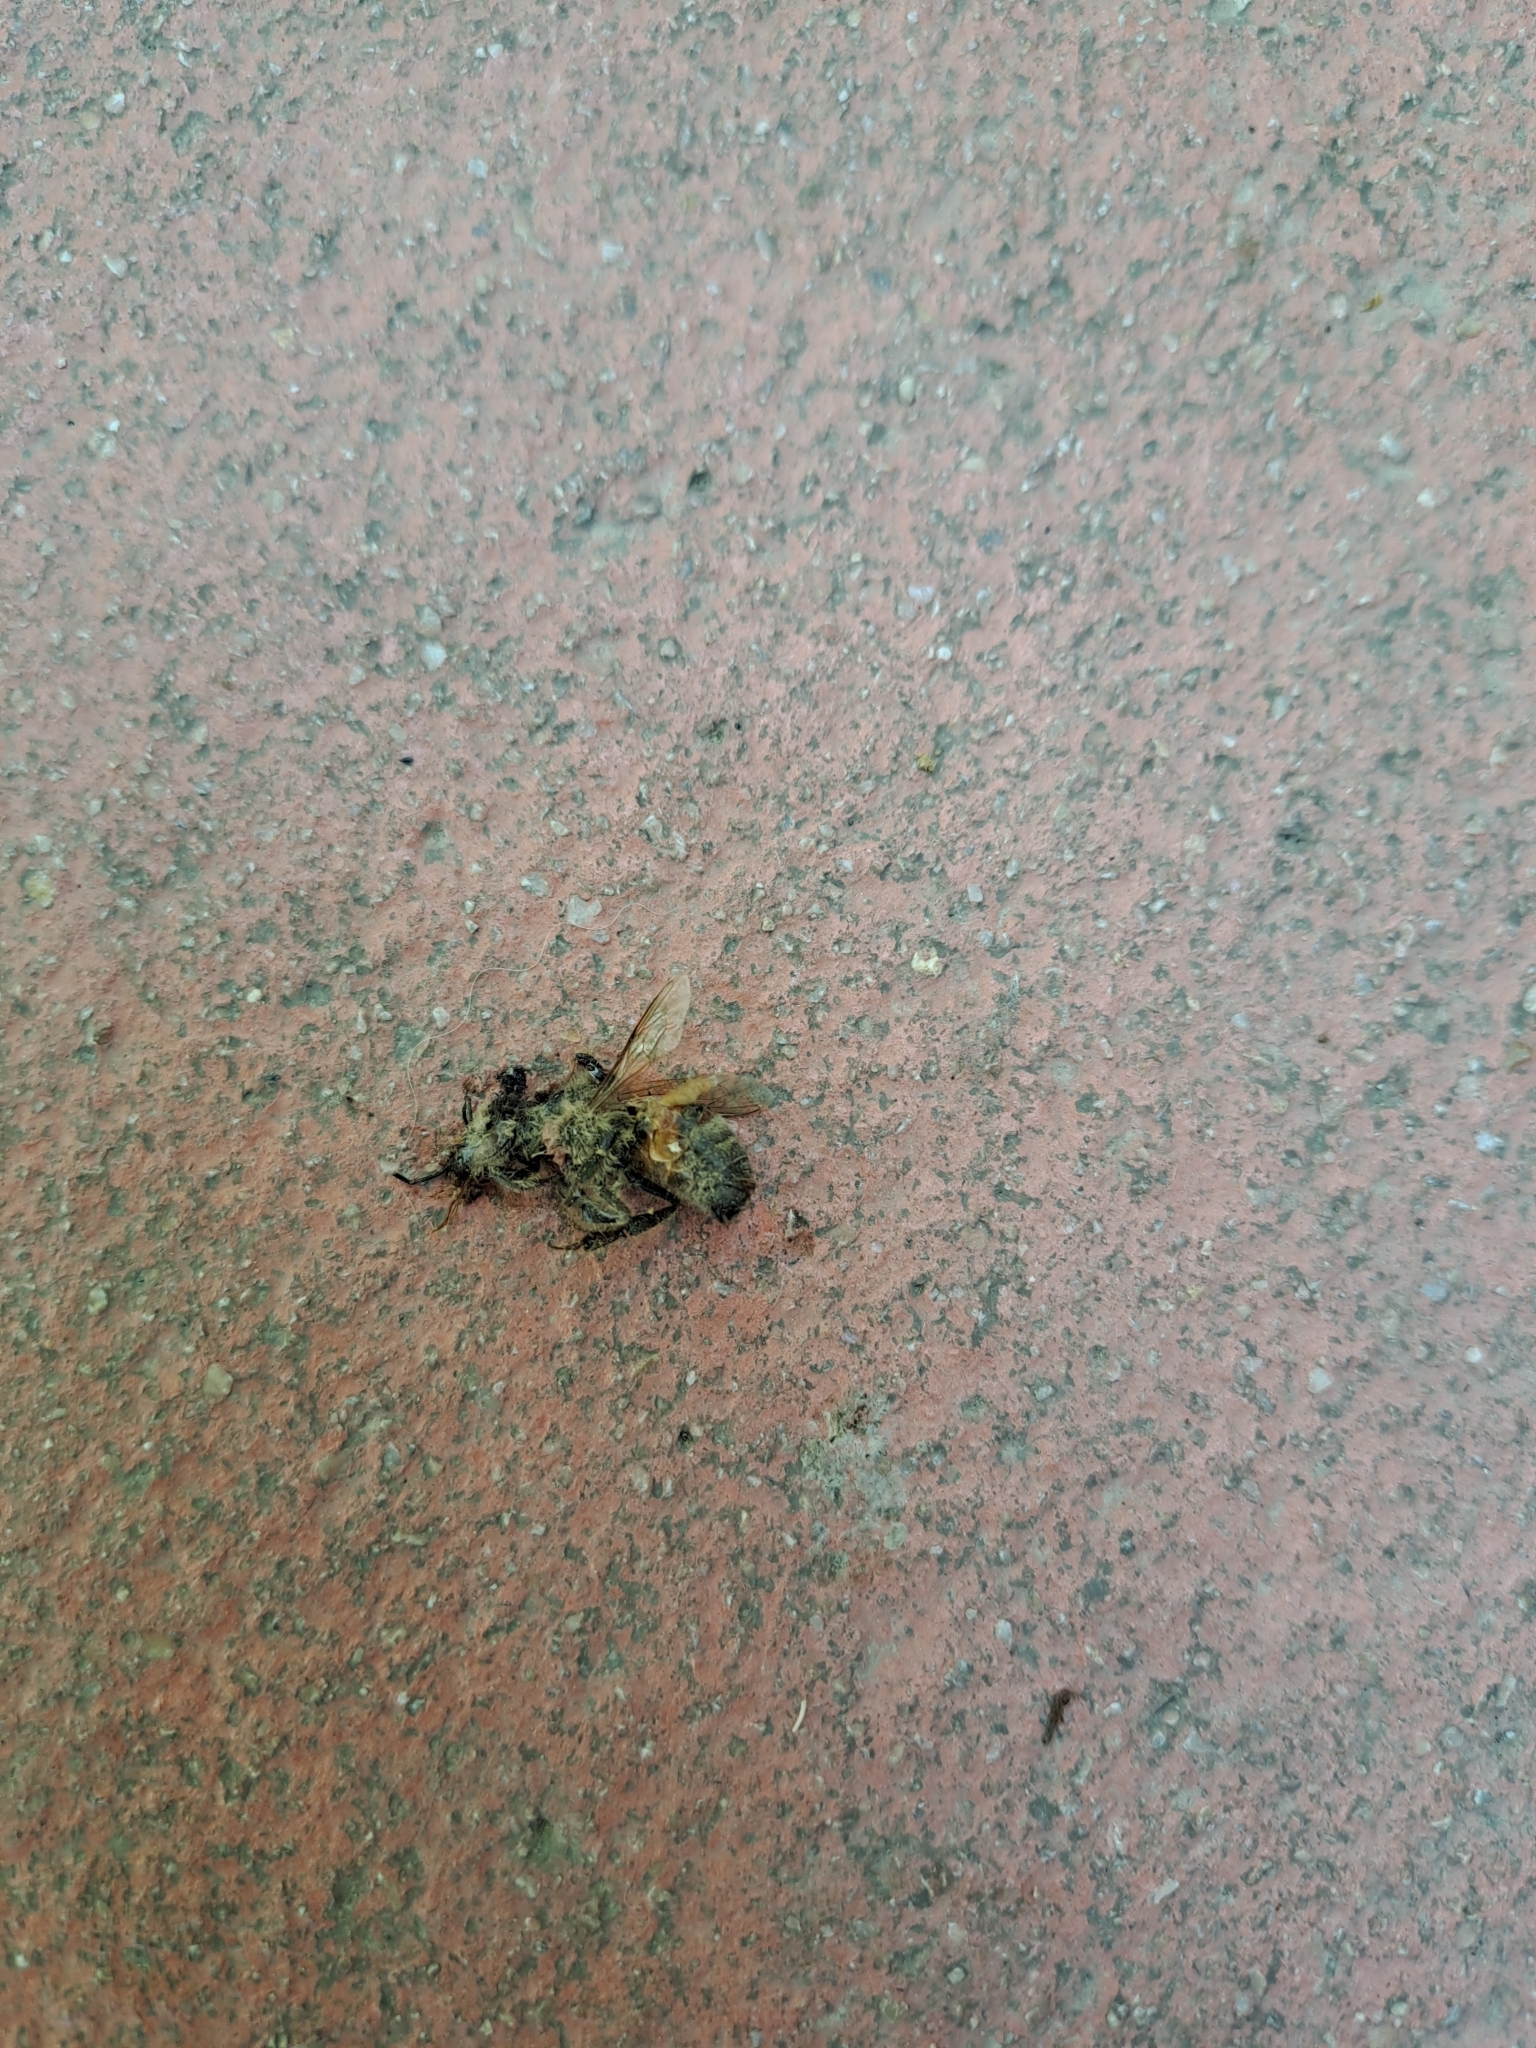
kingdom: Animalia
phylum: Arthropoda
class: Insecta
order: Hymenoptera
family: Apidae
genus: Apis
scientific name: Apis mellifera
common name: Honey bee
